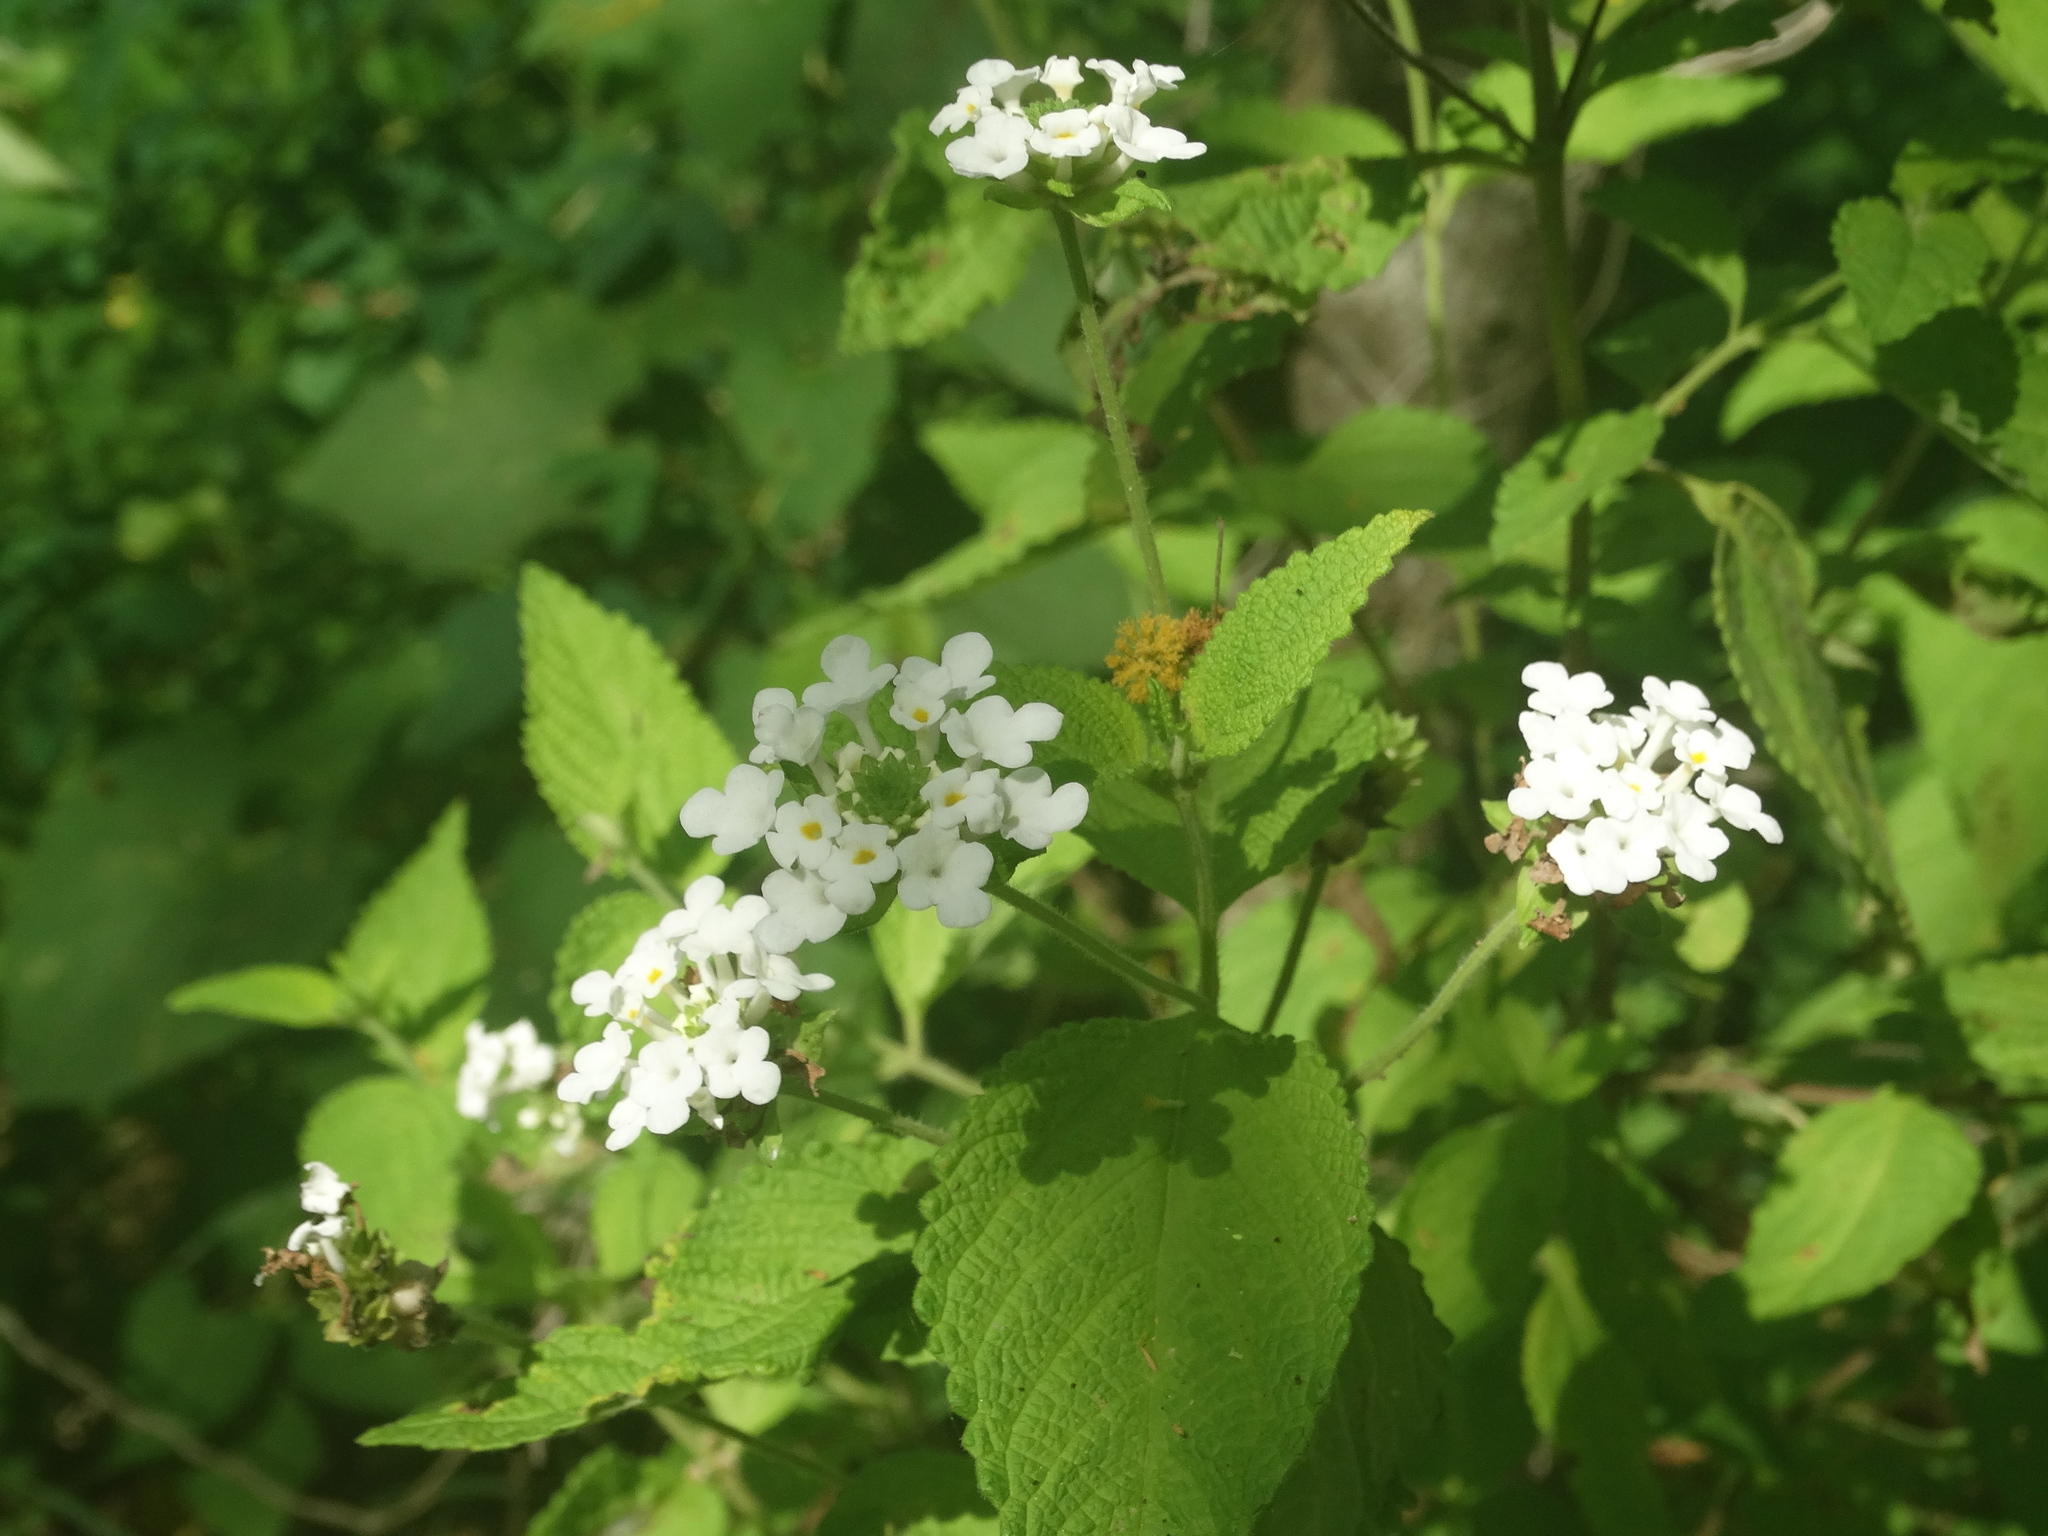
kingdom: Plantae
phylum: Tracheophyta
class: Magnoliopsida
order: Lamiales
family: Verbenaceae
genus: Lantana
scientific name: Lantana velutina
